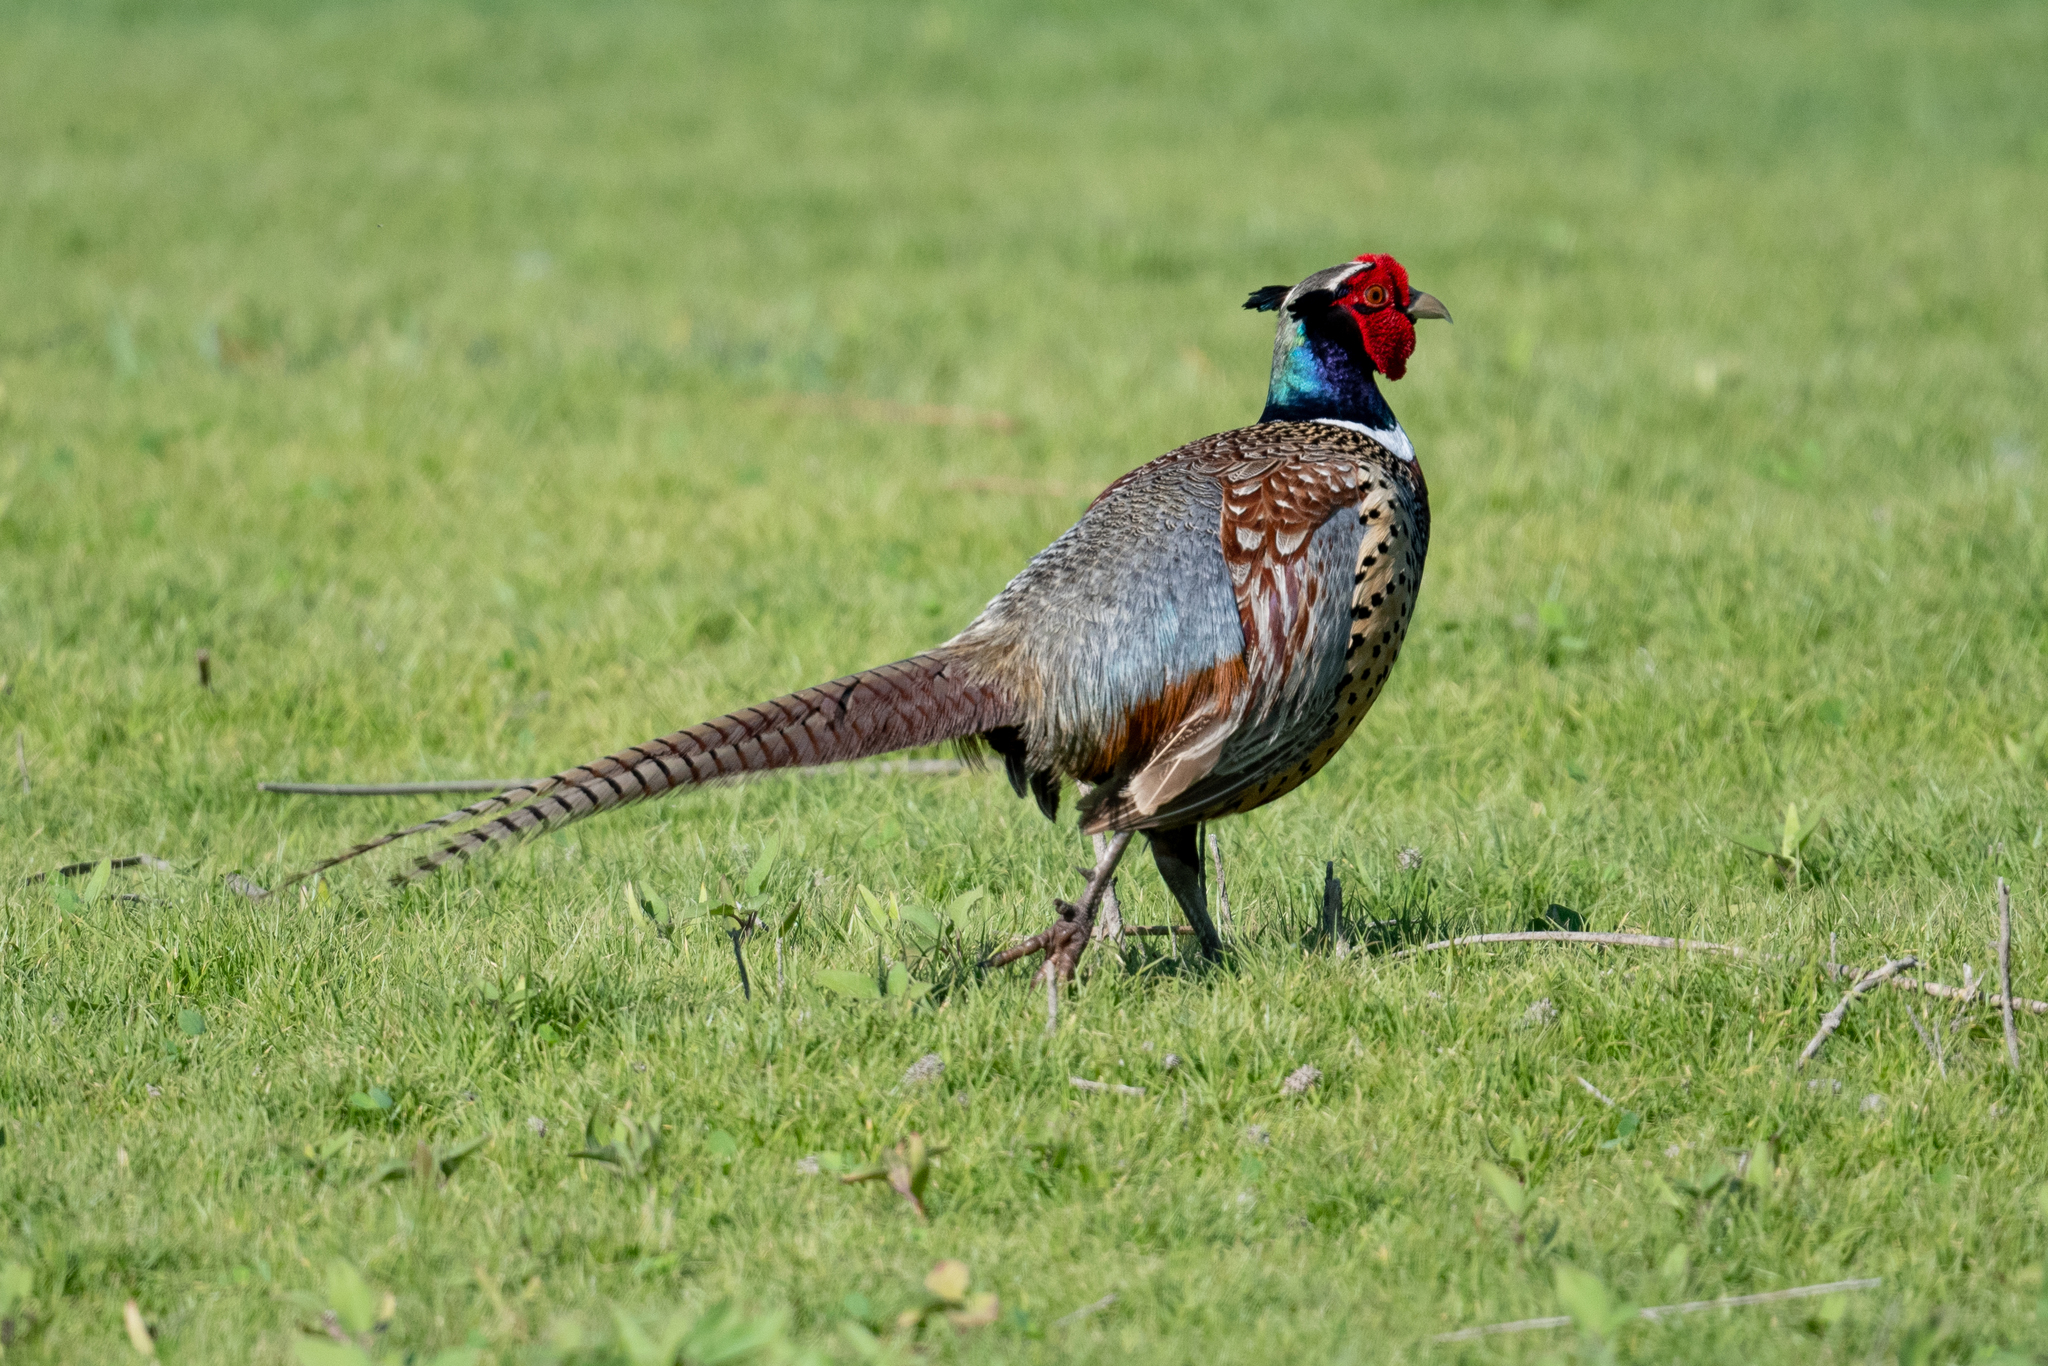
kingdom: Animalia
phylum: Chordata
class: Aves
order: Galliformes
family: Phasianidae
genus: Phasianus
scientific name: Phasianus colchicus
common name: Common pheasant
